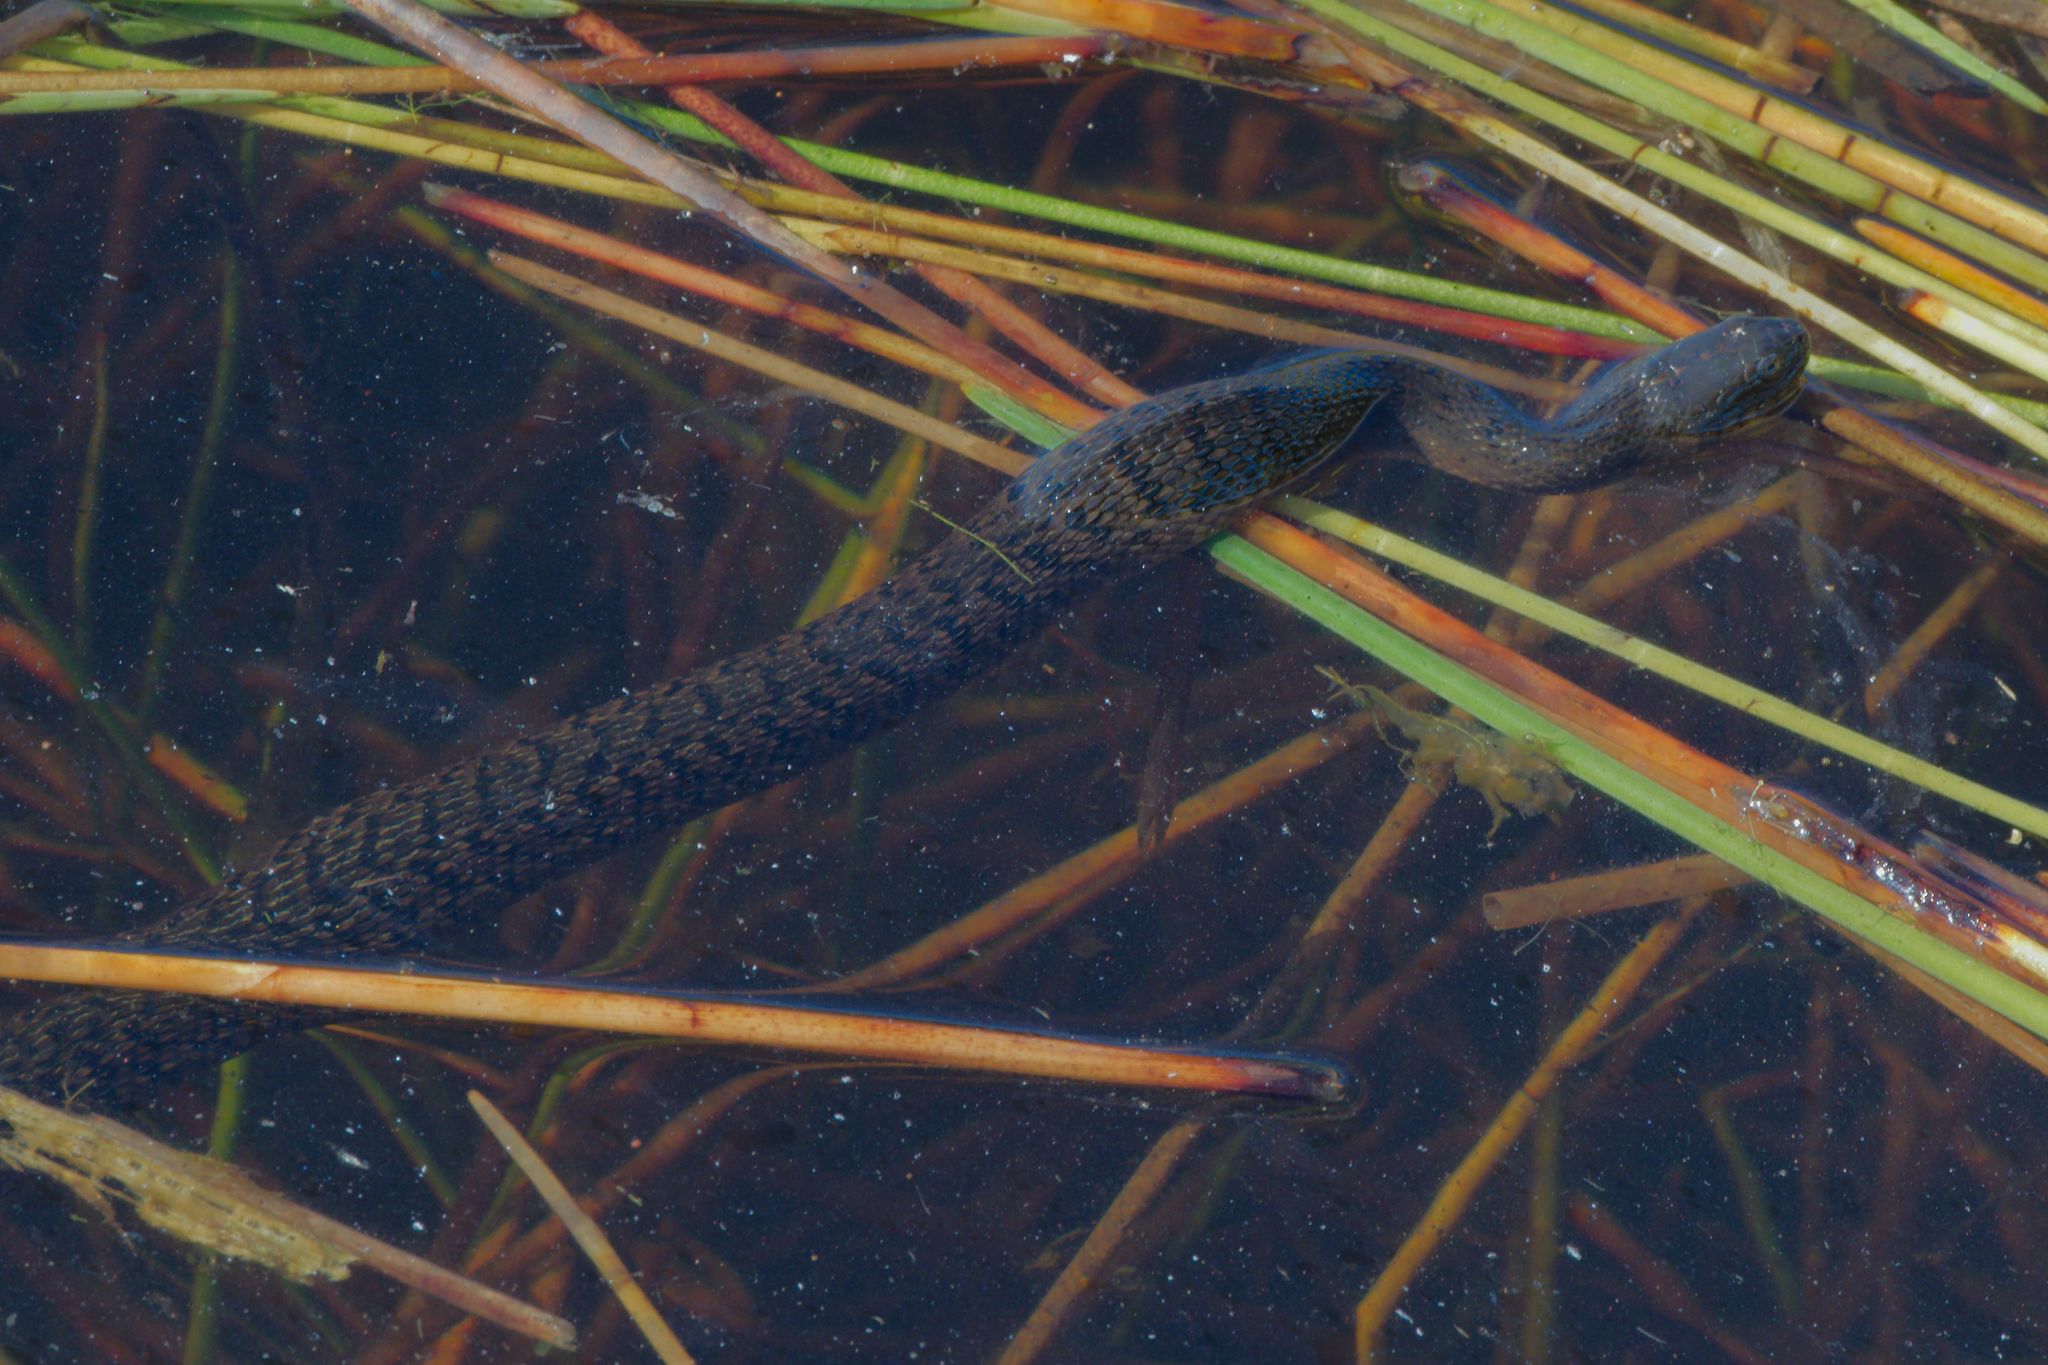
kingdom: Animalia
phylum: Chordata
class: Squamata
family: Colubridae
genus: Nerodia
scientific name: Nerodia floridana
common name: Florida green watersnake
